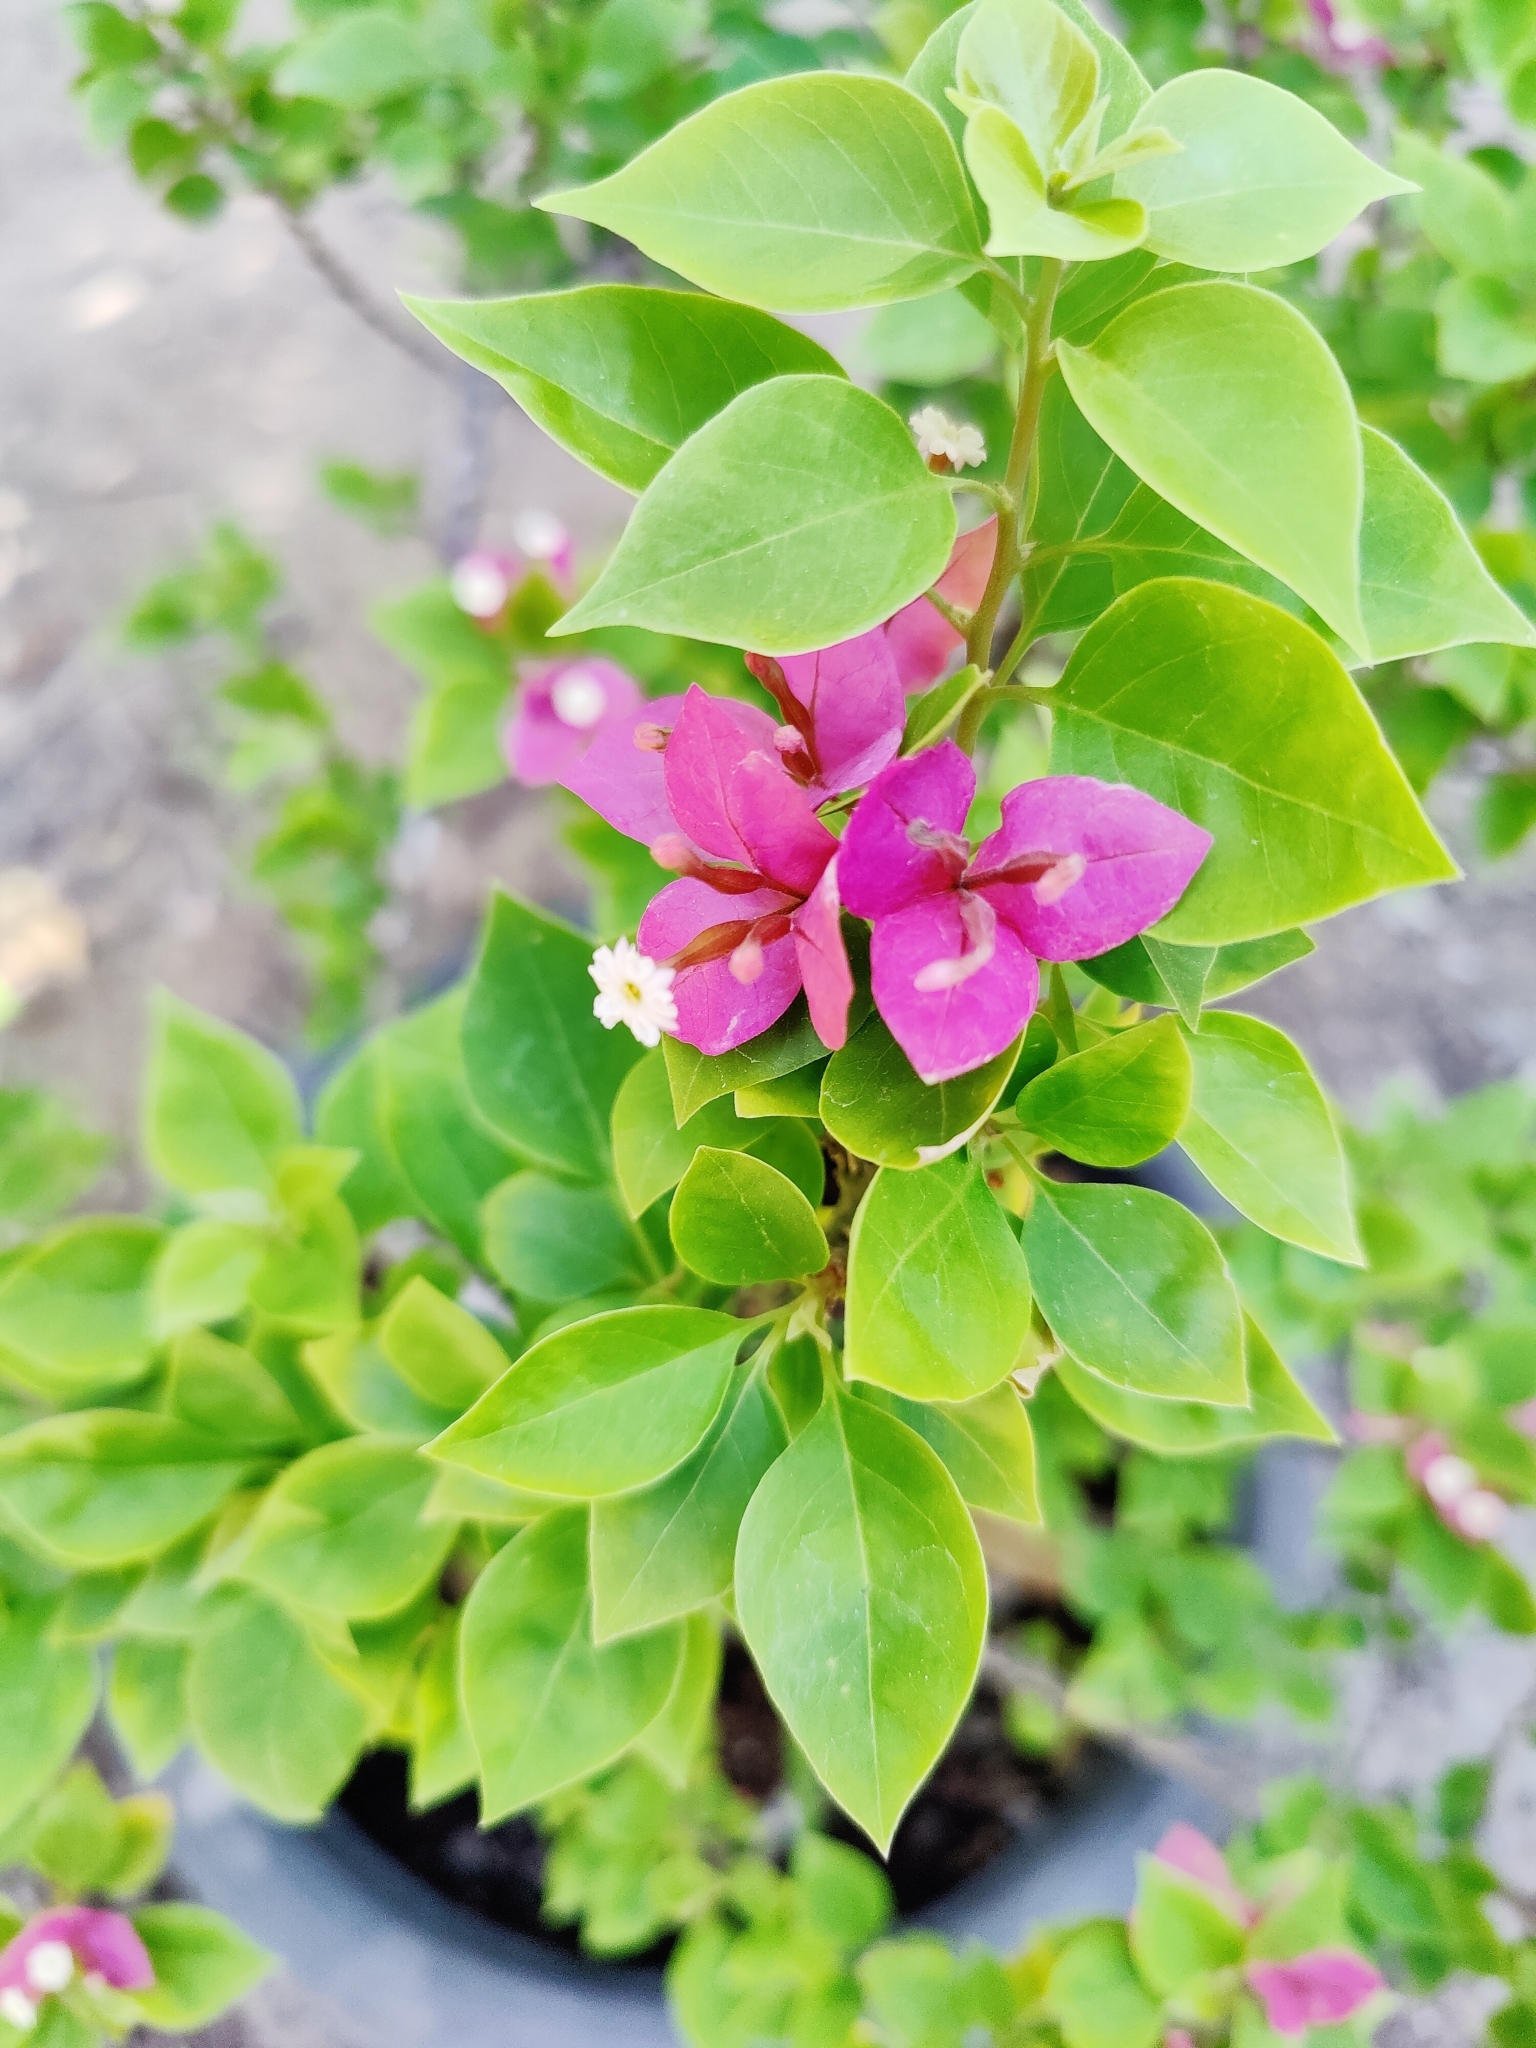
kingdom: Plantae
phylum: Tracheophyta
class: Magnoliopsida
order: Caryophyllales
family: Nyctaginaceae
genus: Bougainvillea
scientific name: Bougainvillea glabra
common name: Paperflower
